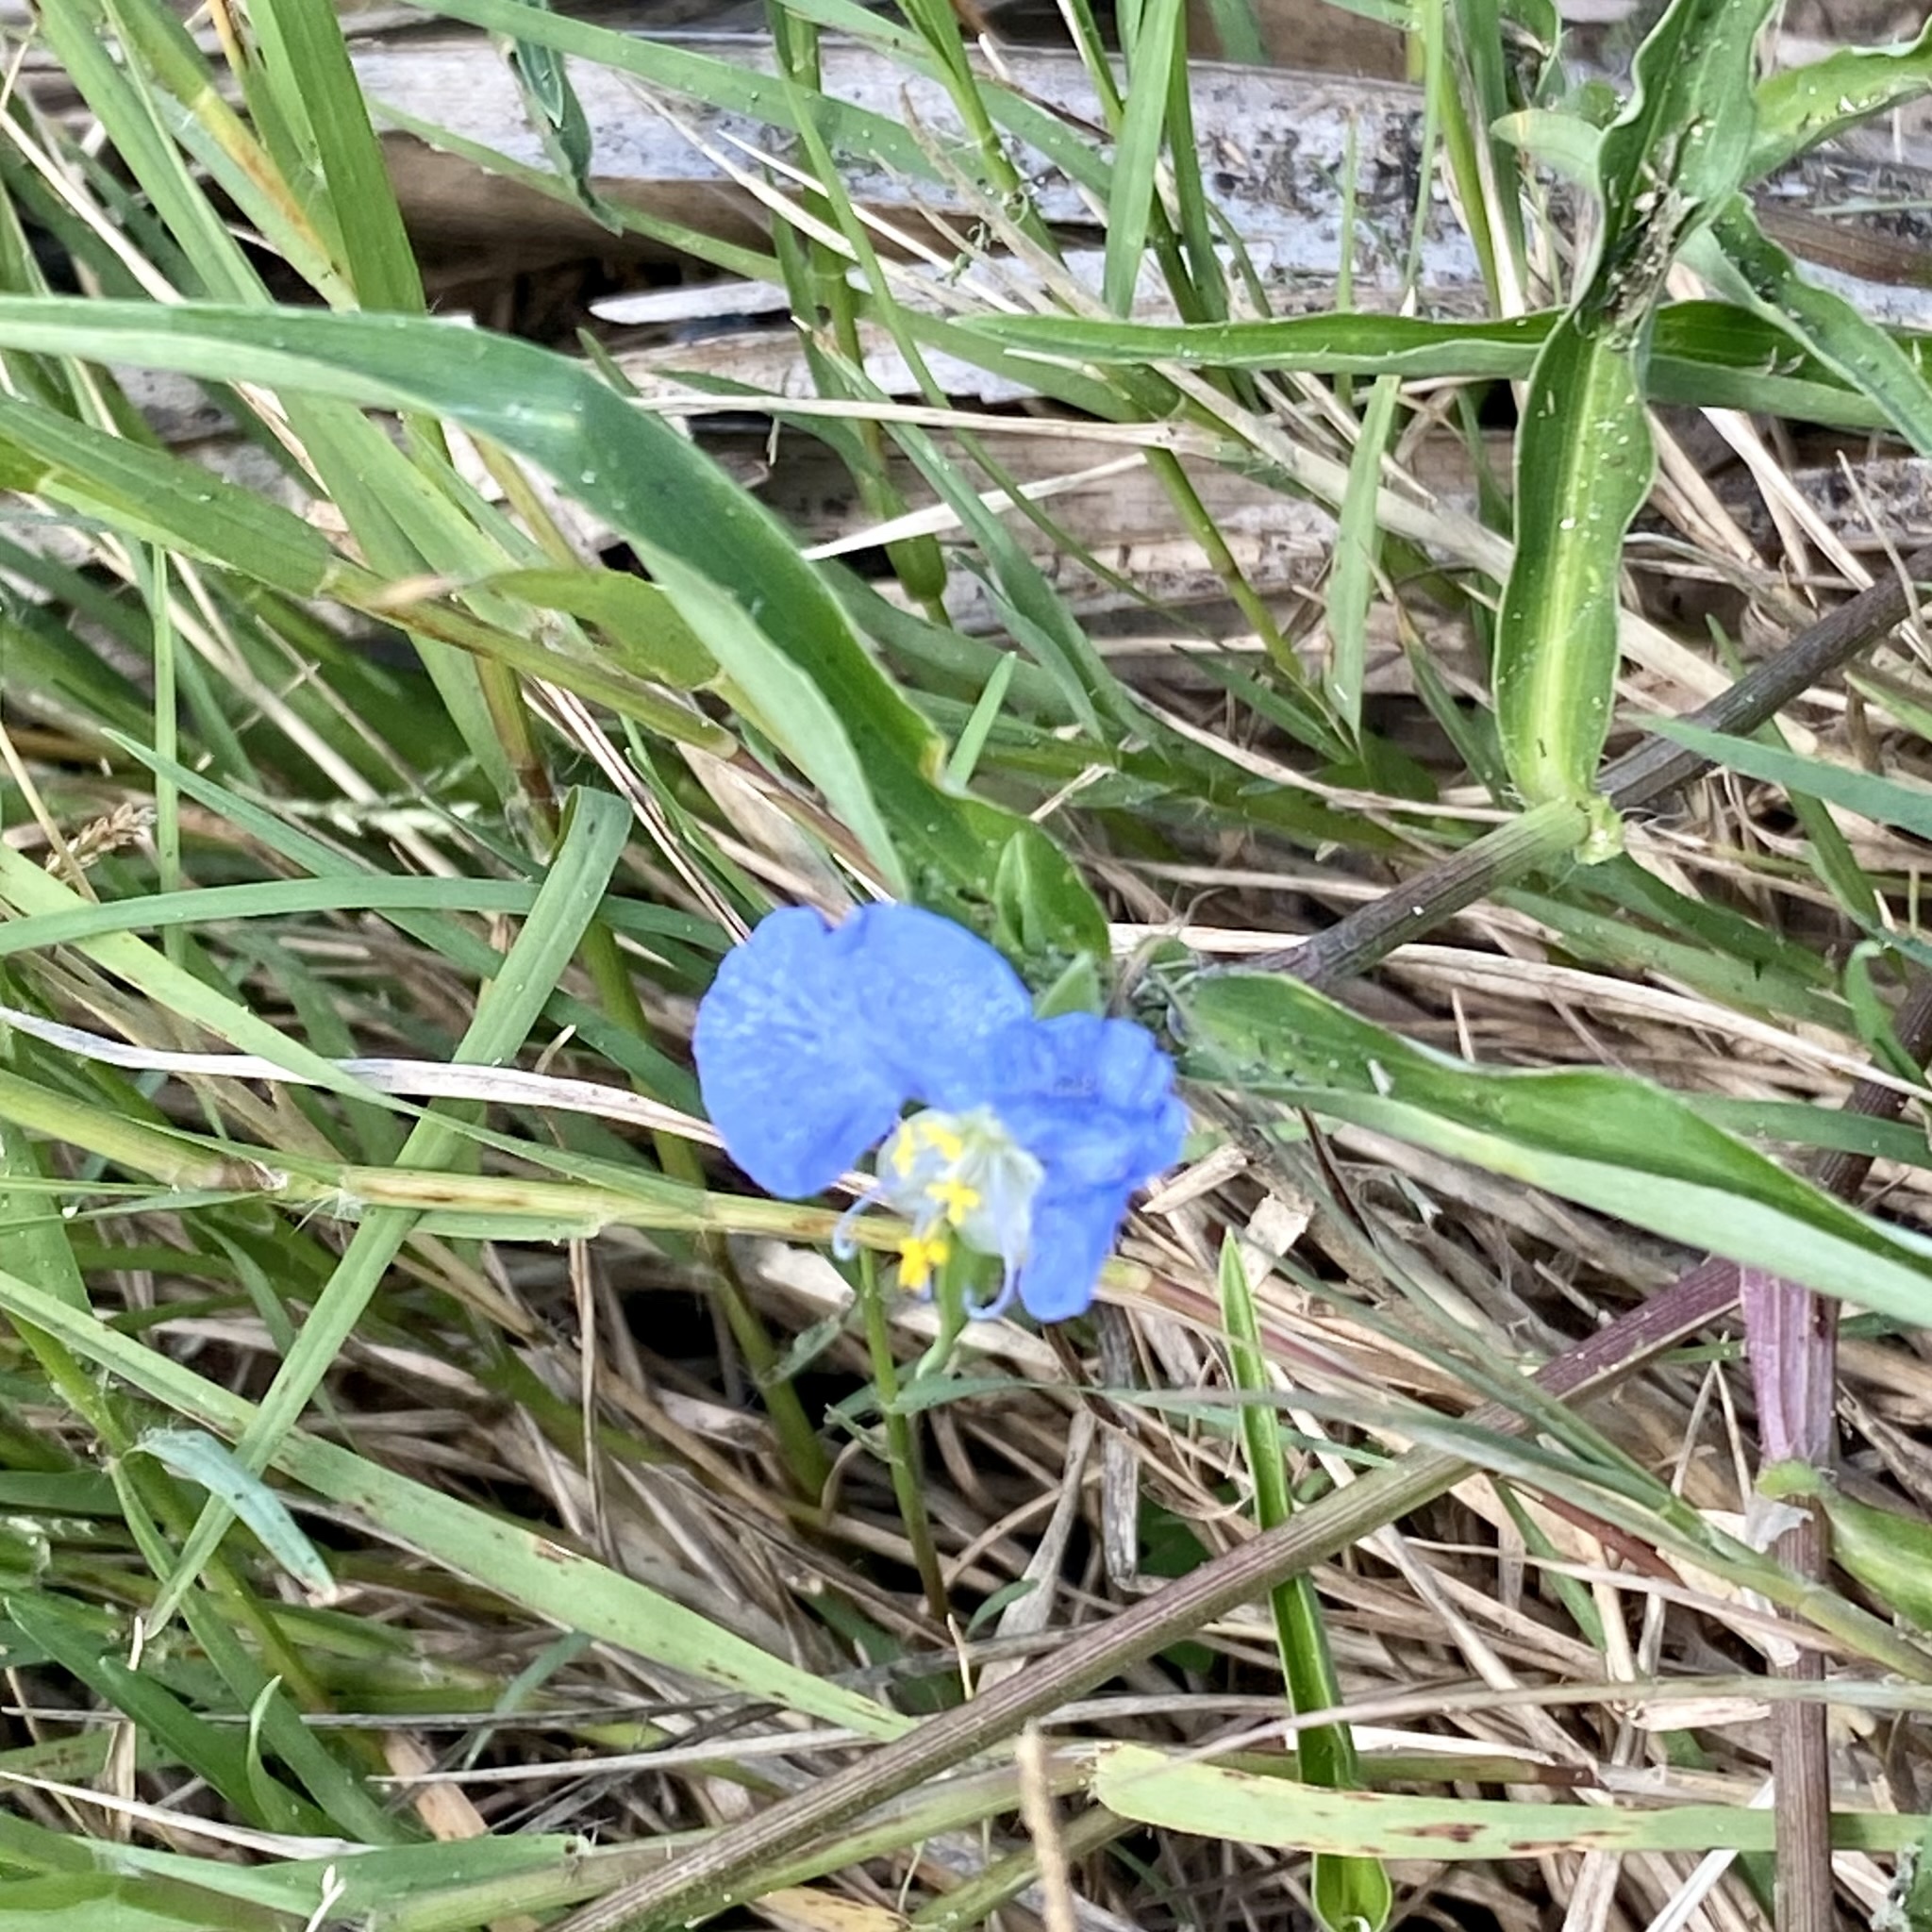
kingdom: Plantae
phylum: Tracheophyta
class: Liliopsida
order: Commelinales
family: Commelinaceae
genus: Commelina
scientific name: Commelina erecta
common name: Blousel blommetjie
